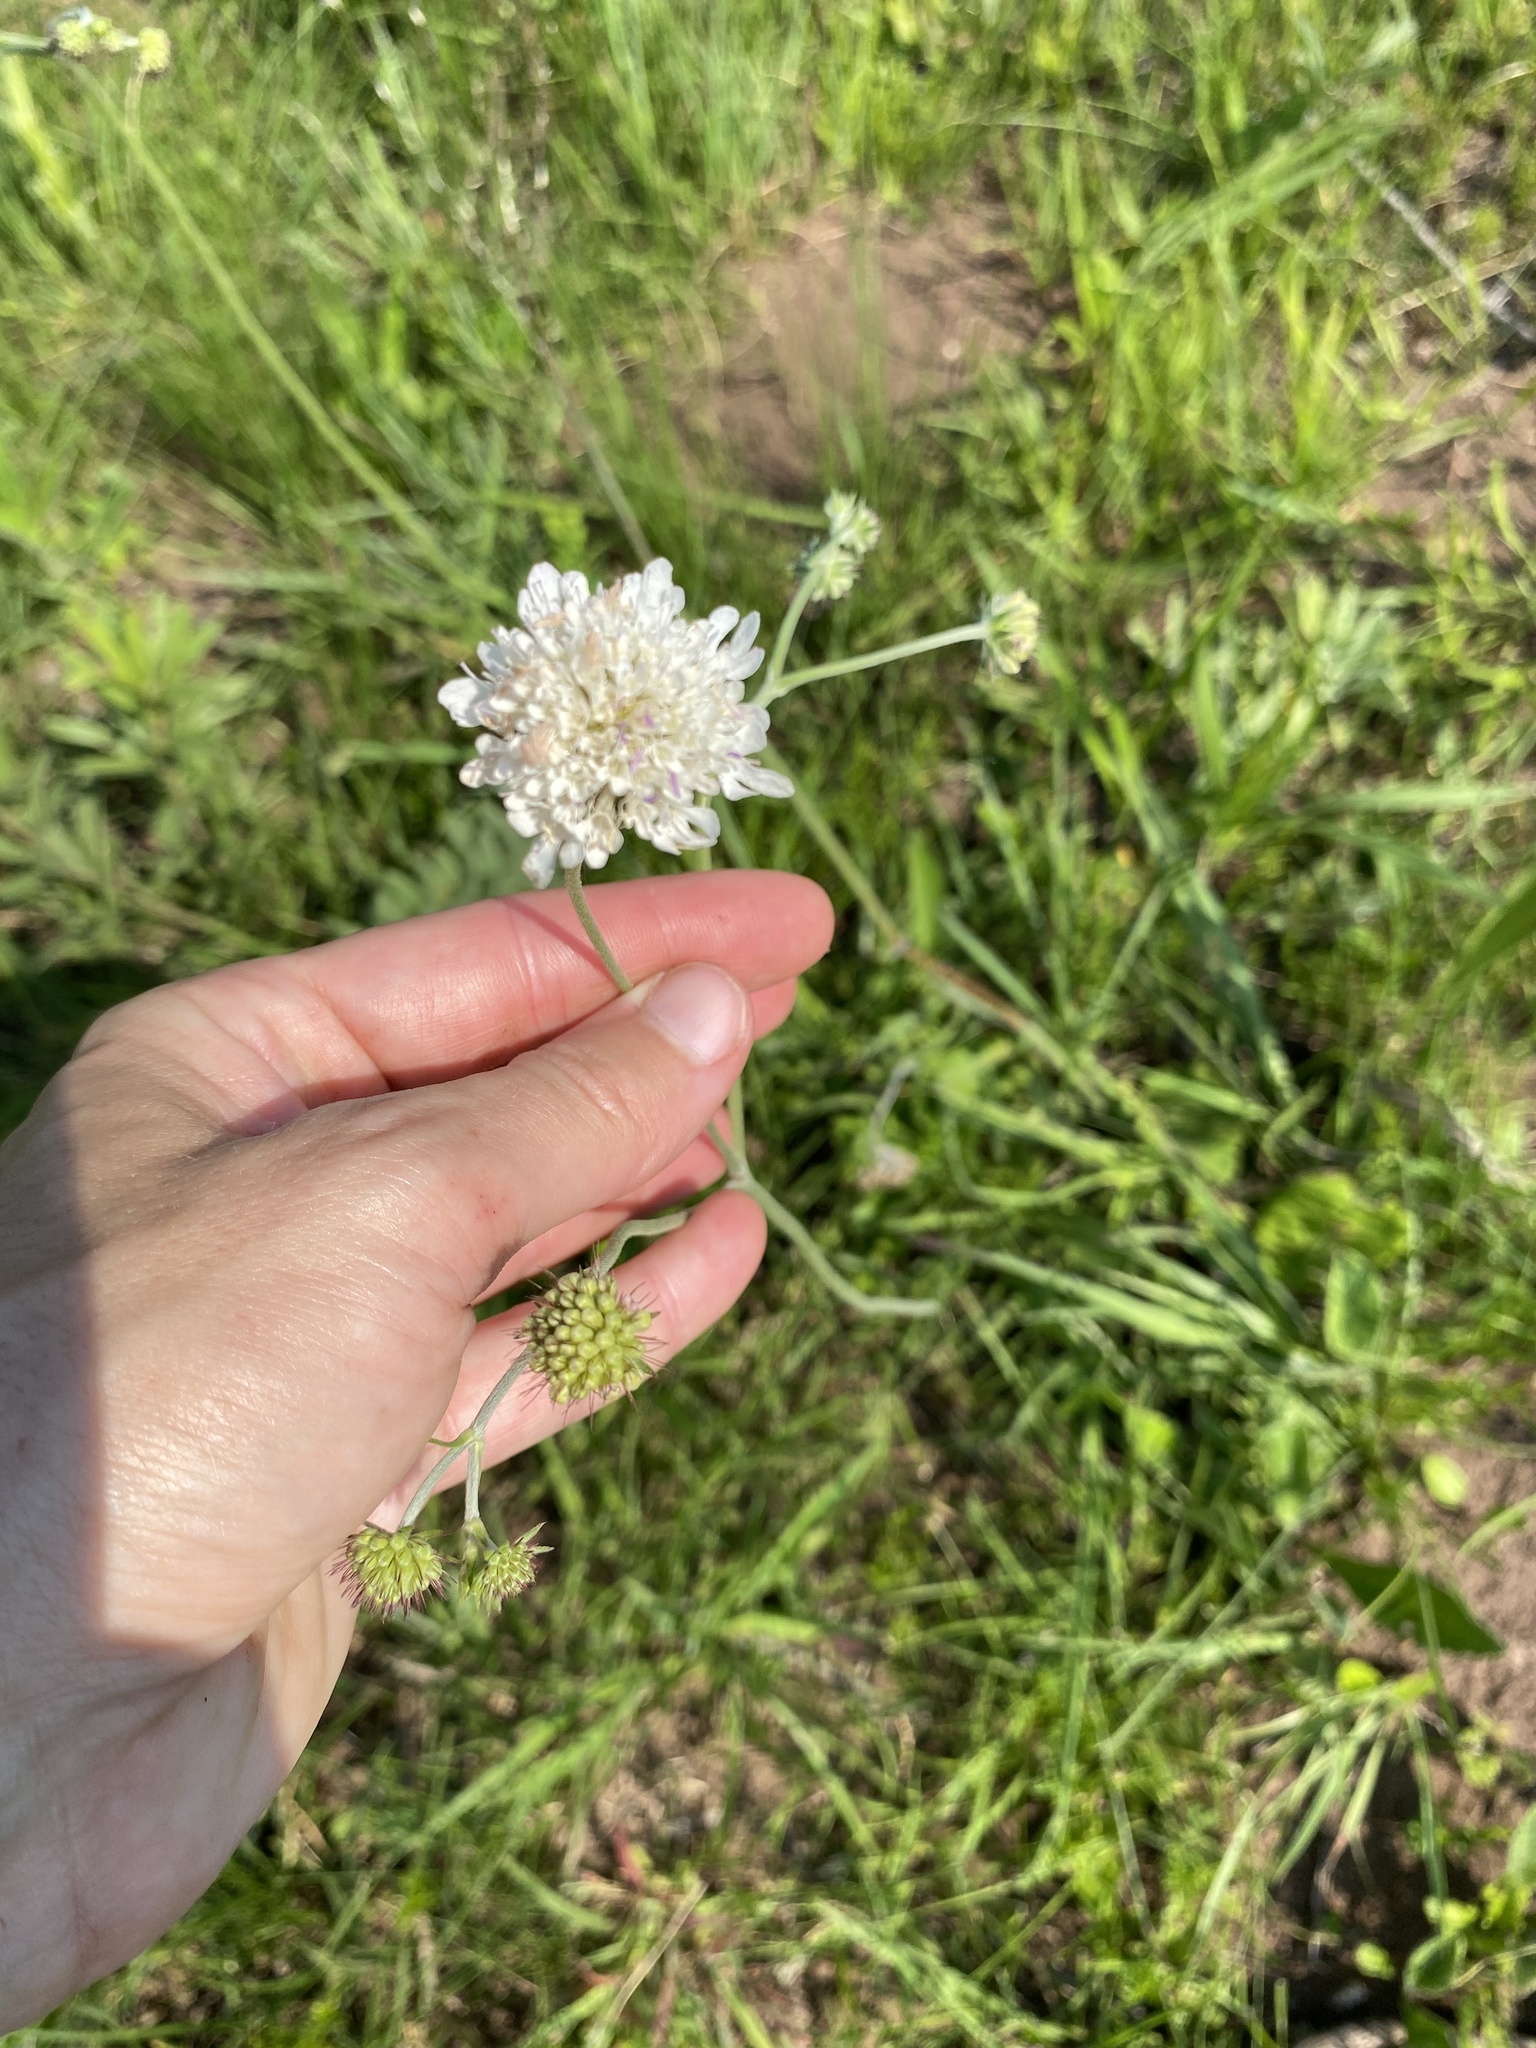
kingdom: Plantae
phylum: Tracheophyta
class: Magnoliopsida
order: Dipsacales
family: Caprifoliaceae
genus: Scabiosa
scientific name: Scabiosa columbaria
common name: Small scabious
